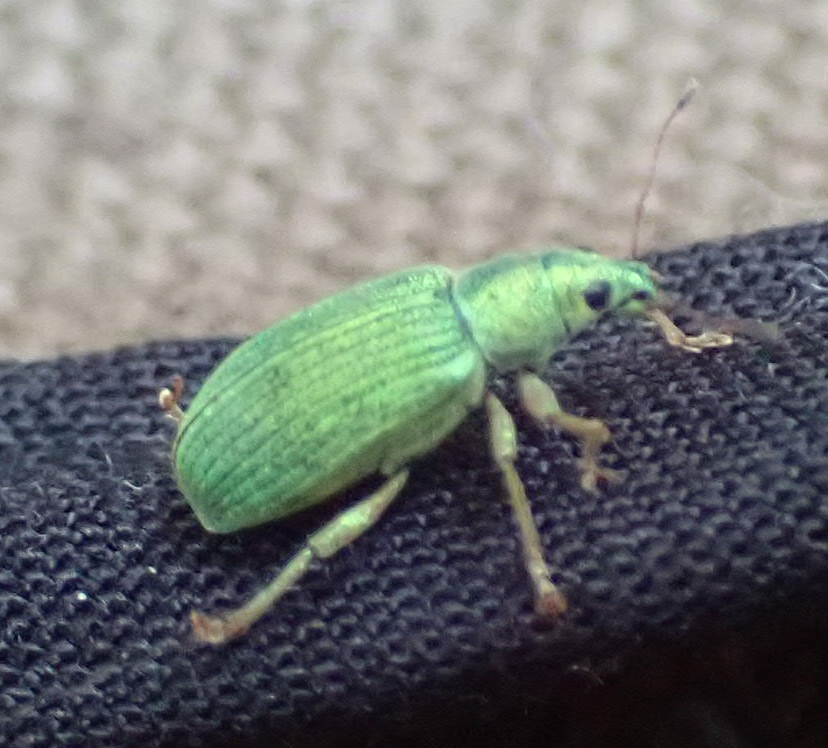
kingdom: Animalia
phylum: Arthropoda
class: Insecta
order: Coleoptera
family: Curculionidae
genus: Polydrusus
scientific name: Polydrusus formosus
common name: Weevil
